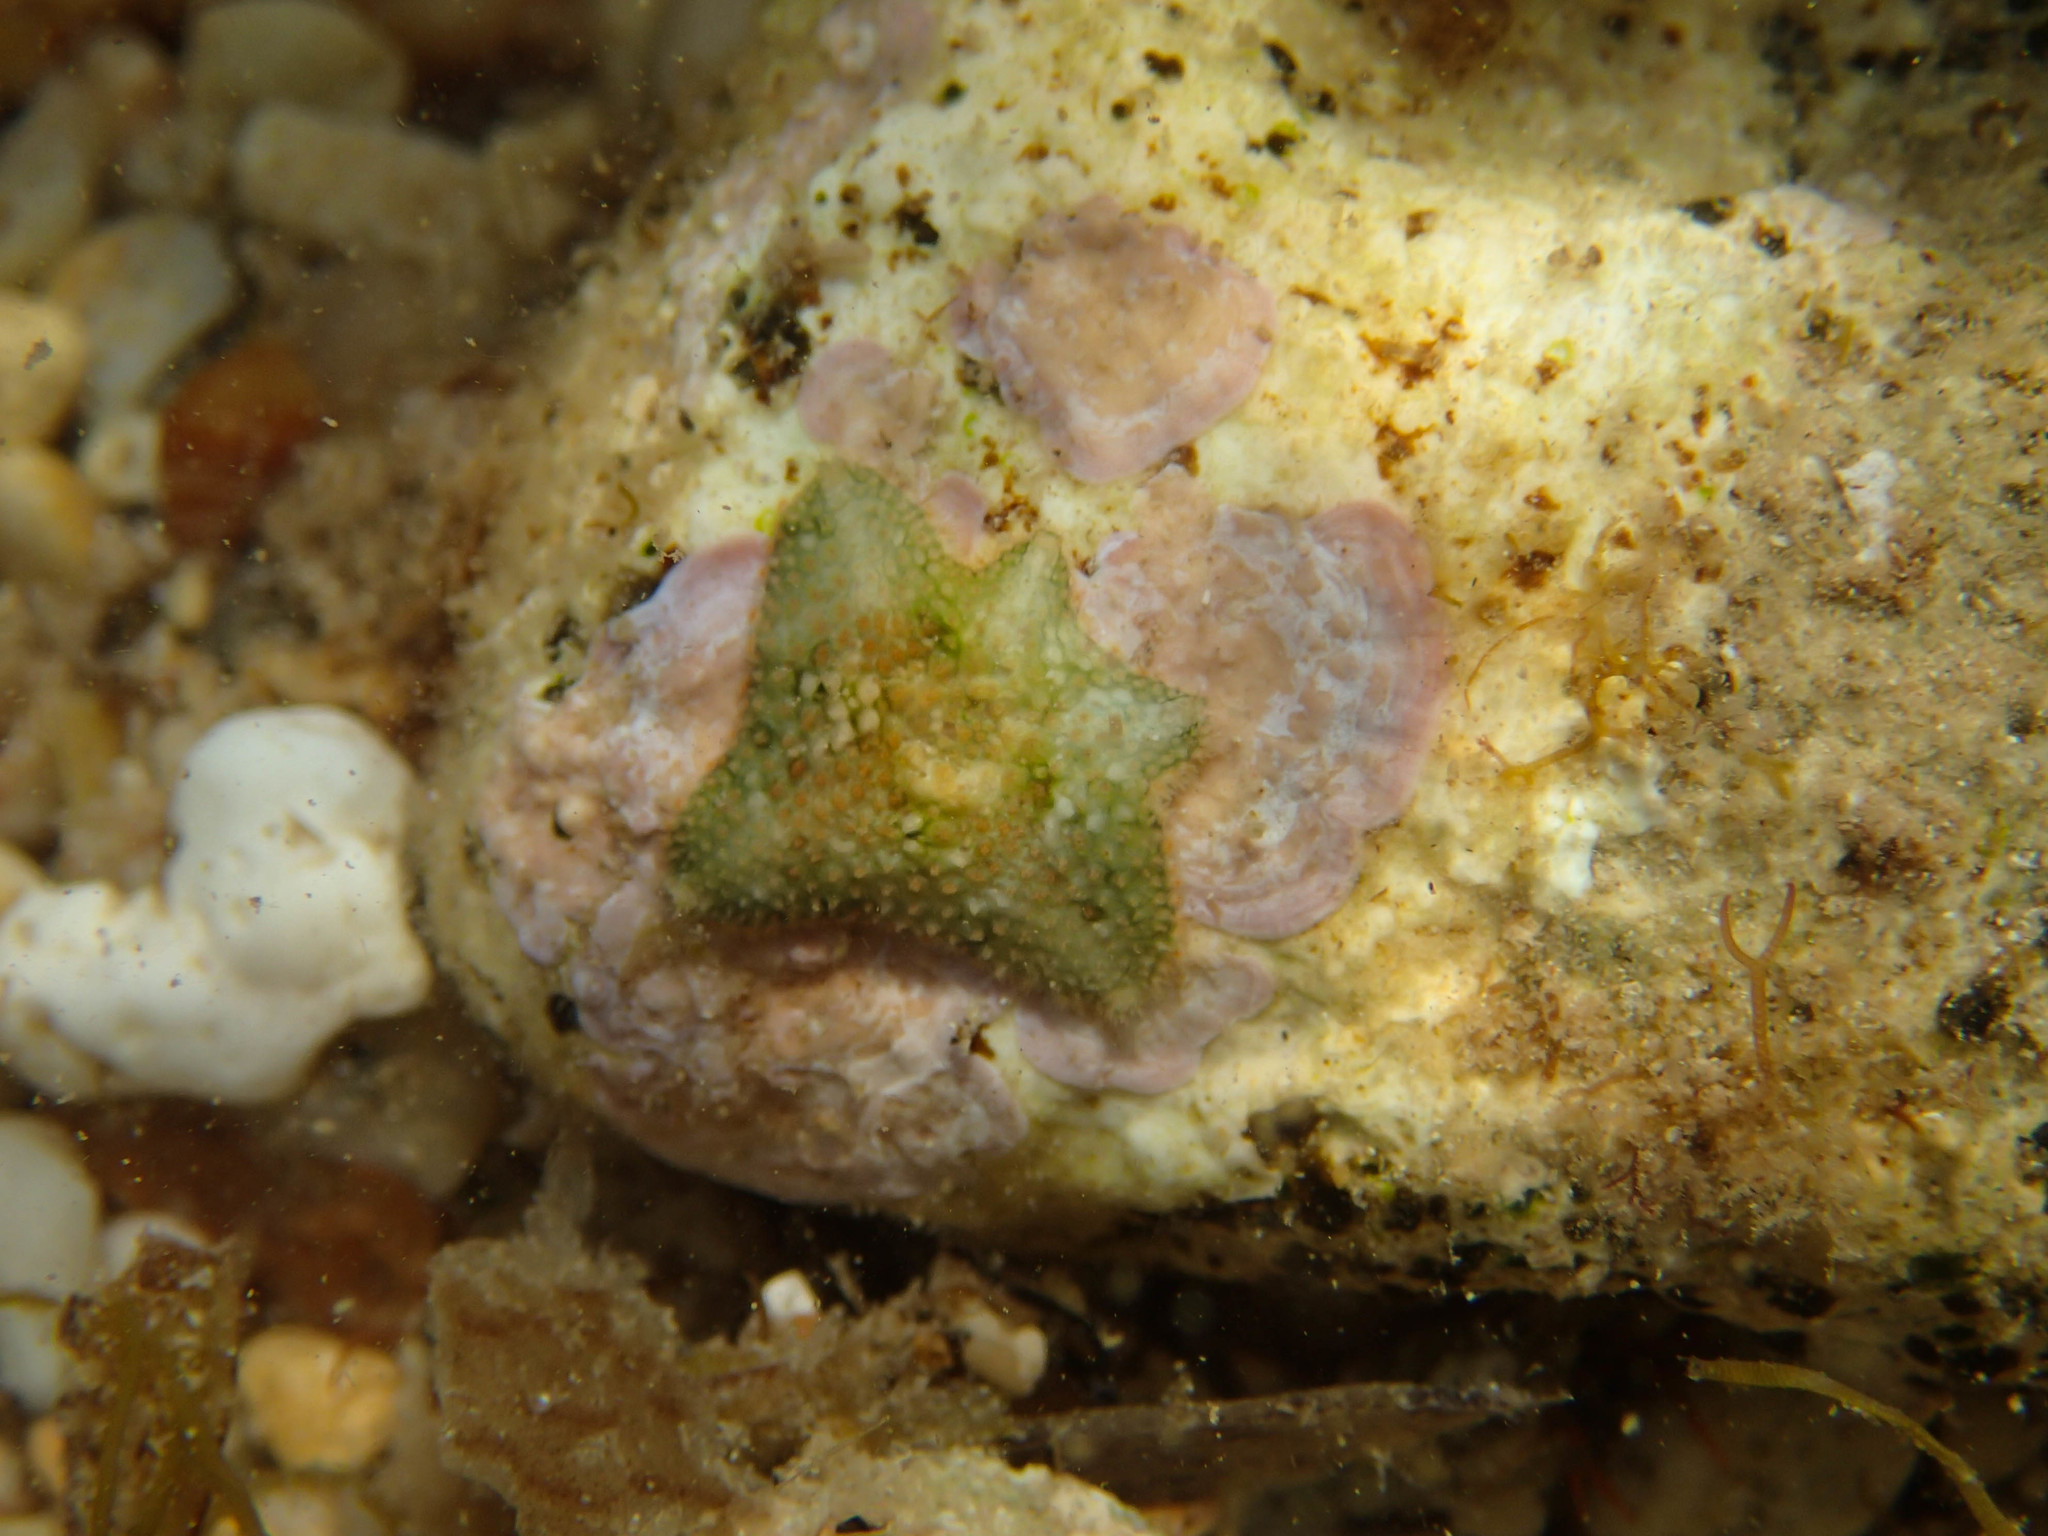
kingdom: Animalia
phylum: Echinodermata
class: Asteroidea
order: Valvatida
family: Asterinidae
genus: Asterina
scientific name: Asterina gibbosa
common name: Cushion star
